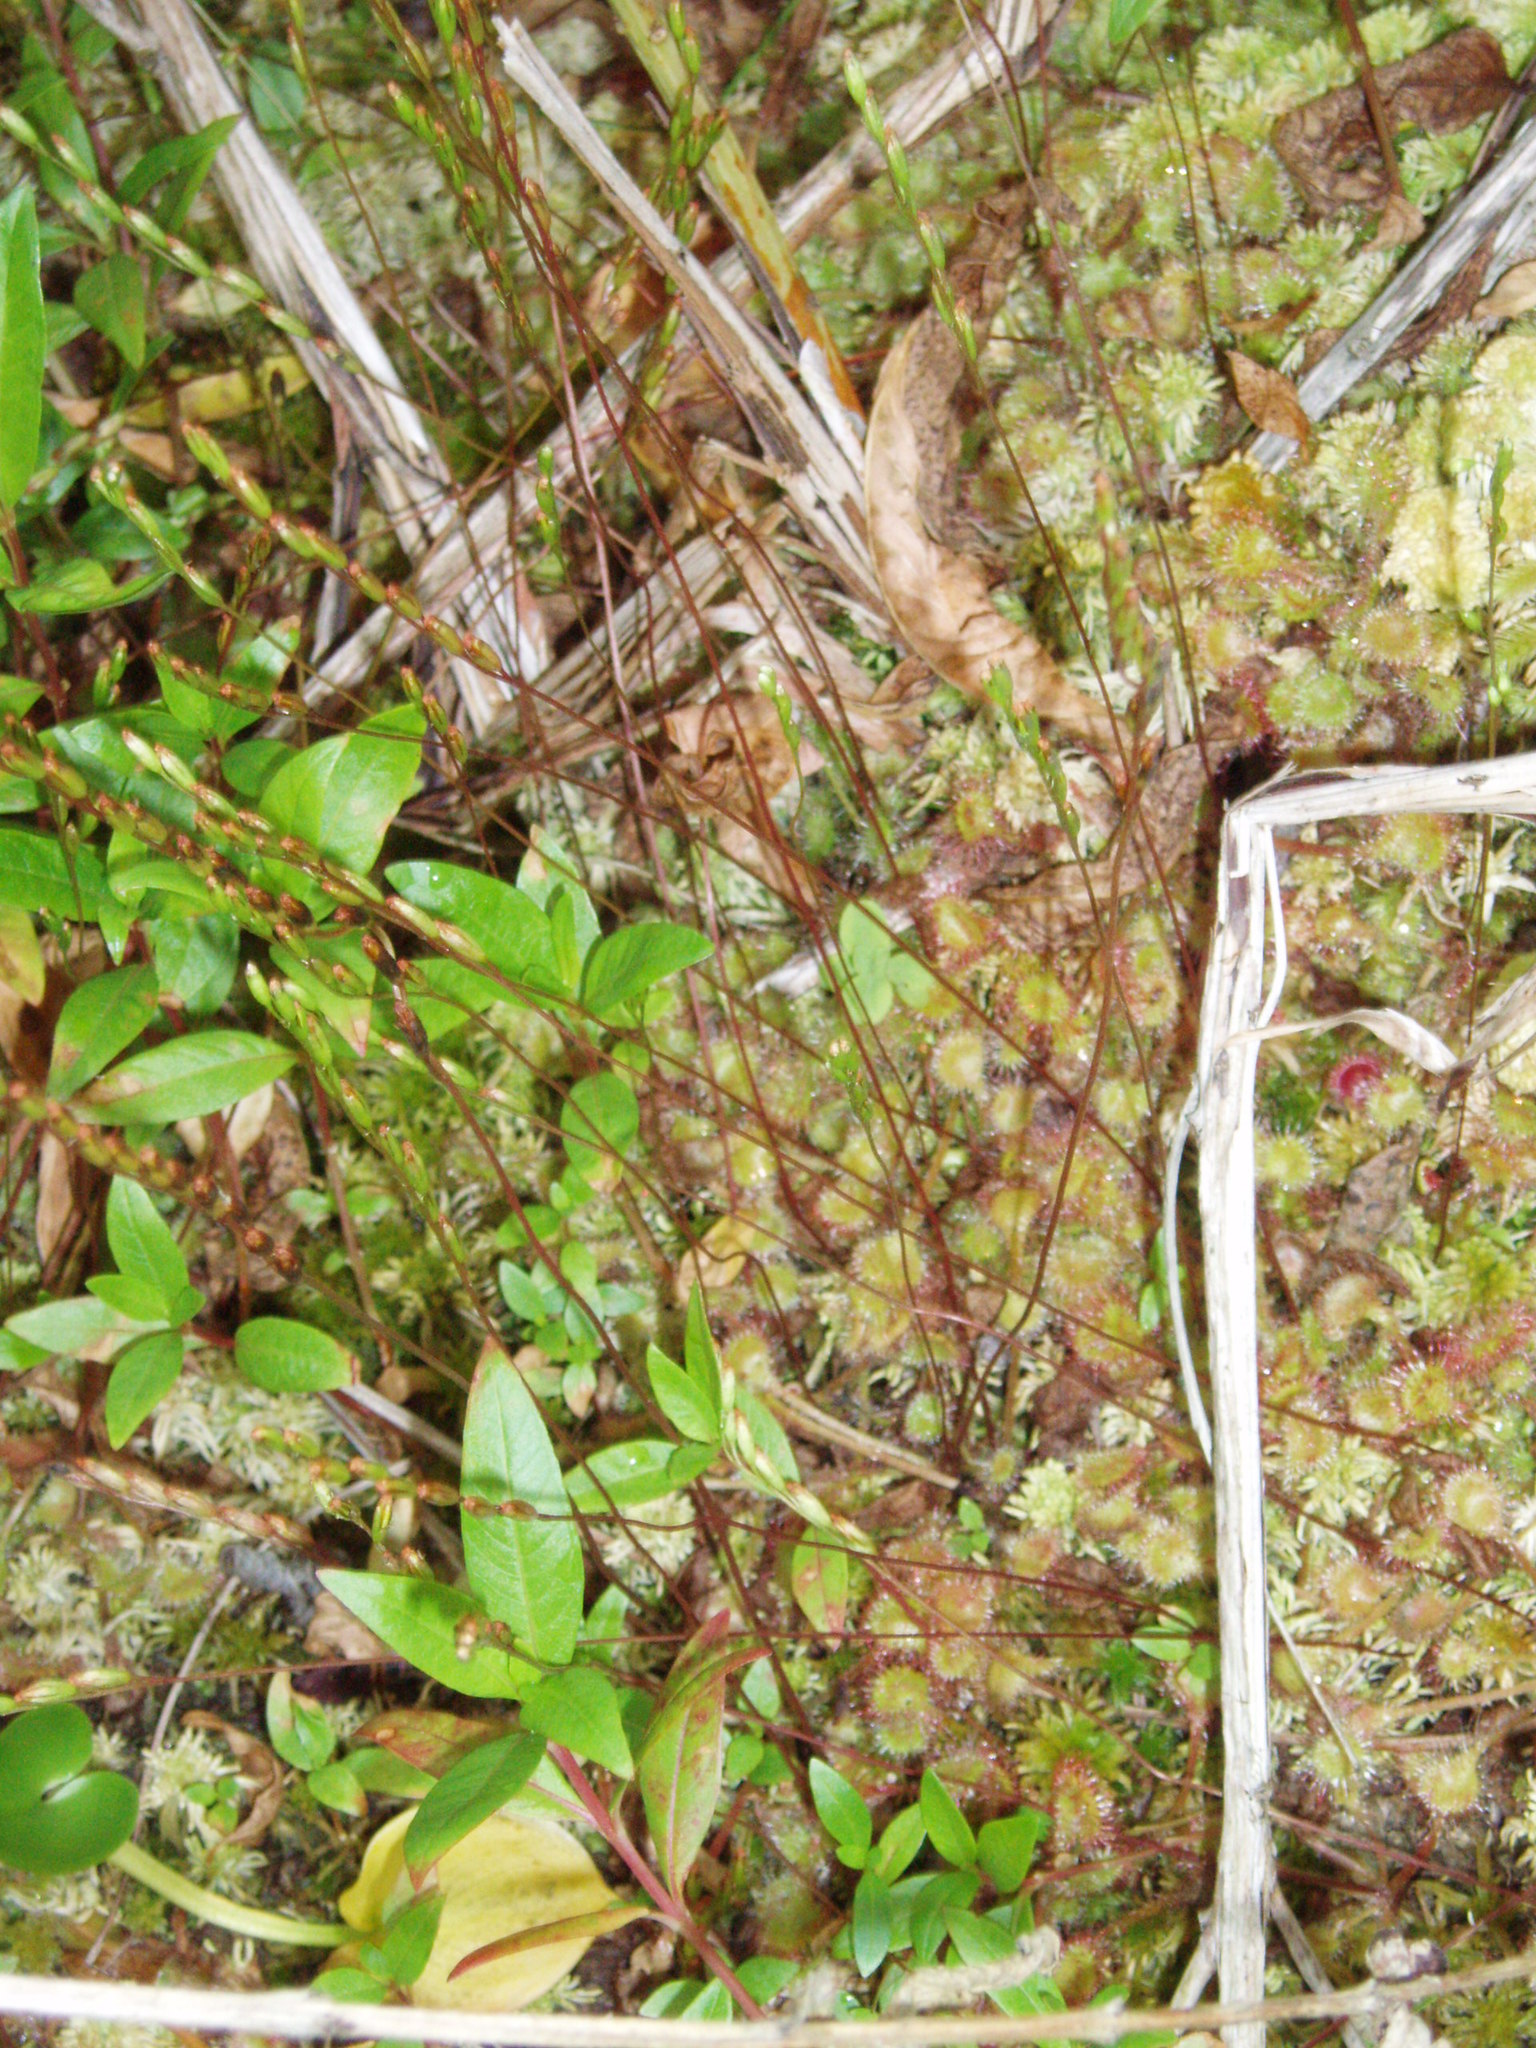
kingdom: Plantae
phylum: Tracheophyta
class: Magnoliopsida
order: Caryophyllales
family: Droseraceae
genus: Drosera
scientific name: Drosera rotundifolia
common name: Round-leaved sundew
